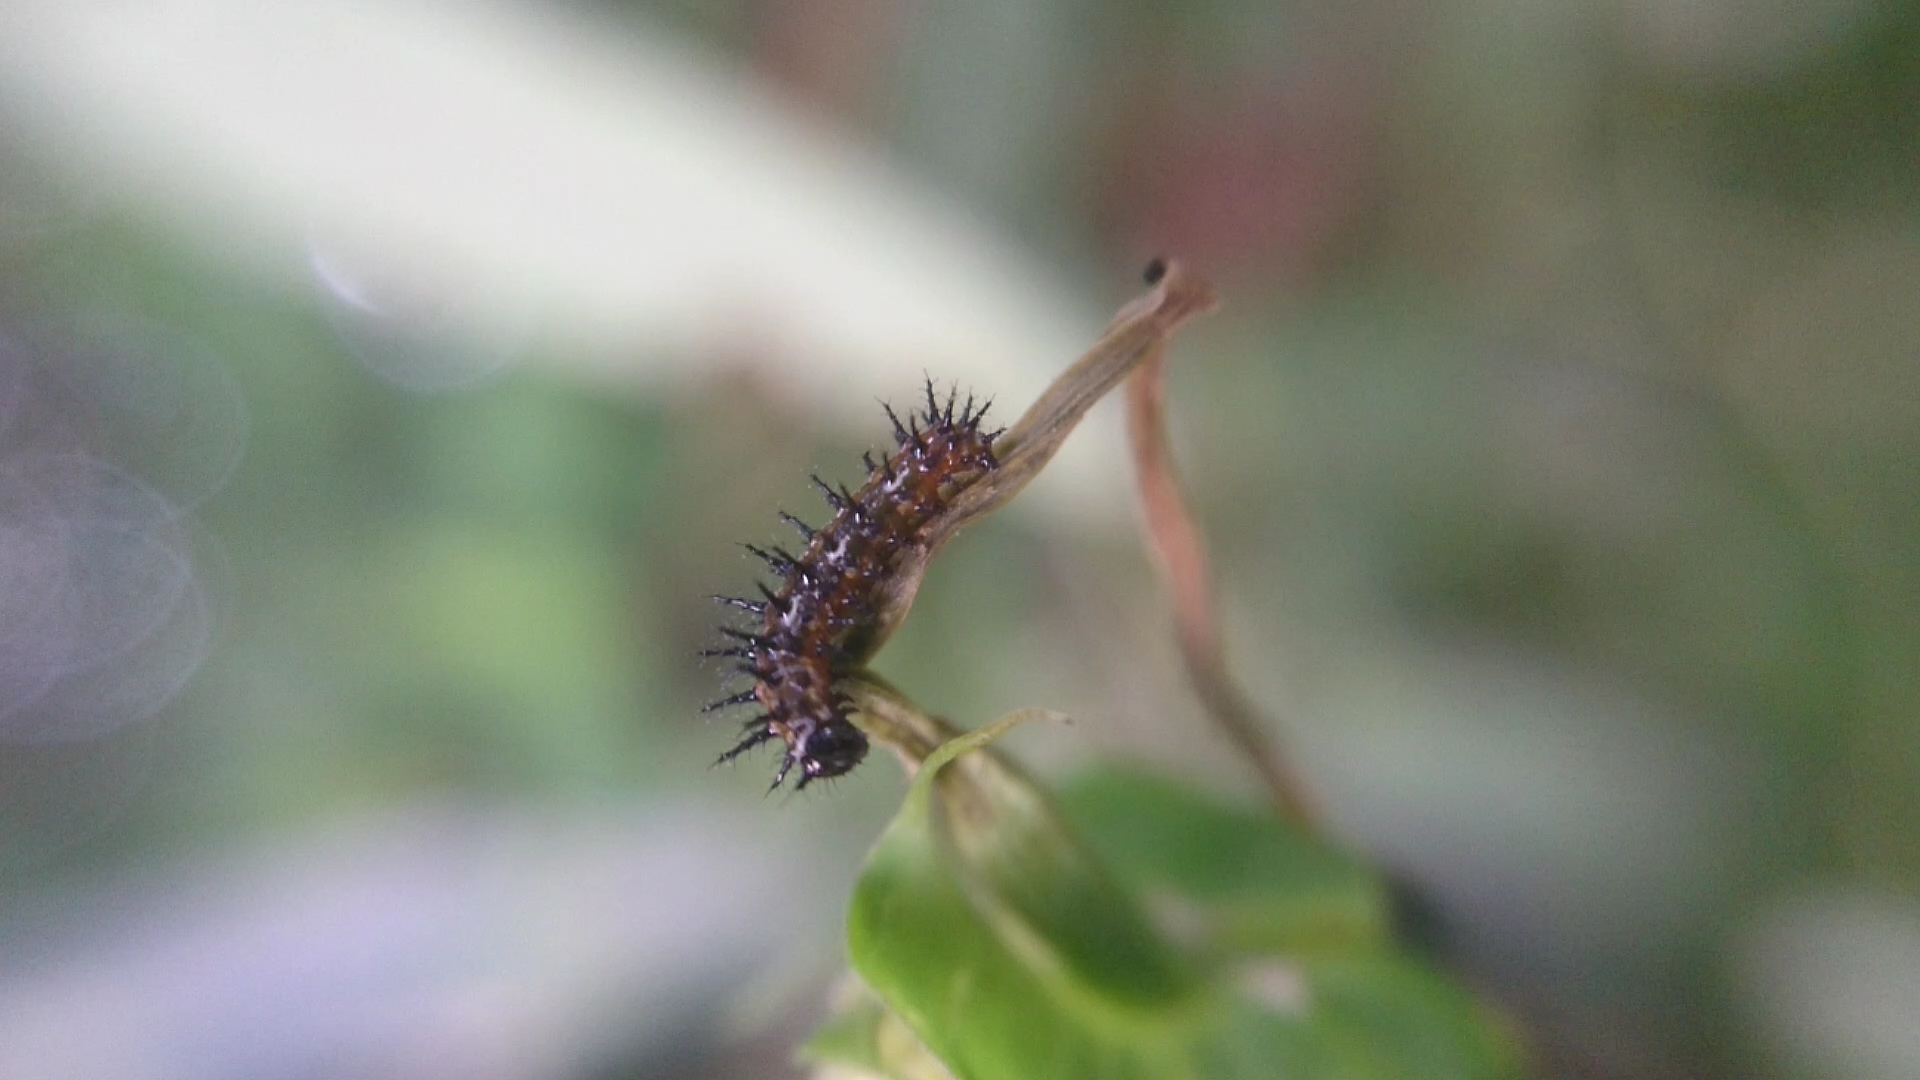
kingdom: Animalia
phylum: Arthropoda
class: Insecta
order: Lepidoptera
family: Nymphalidae
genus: Dione
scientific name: Dione vanillae
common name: Gulf fritillary
